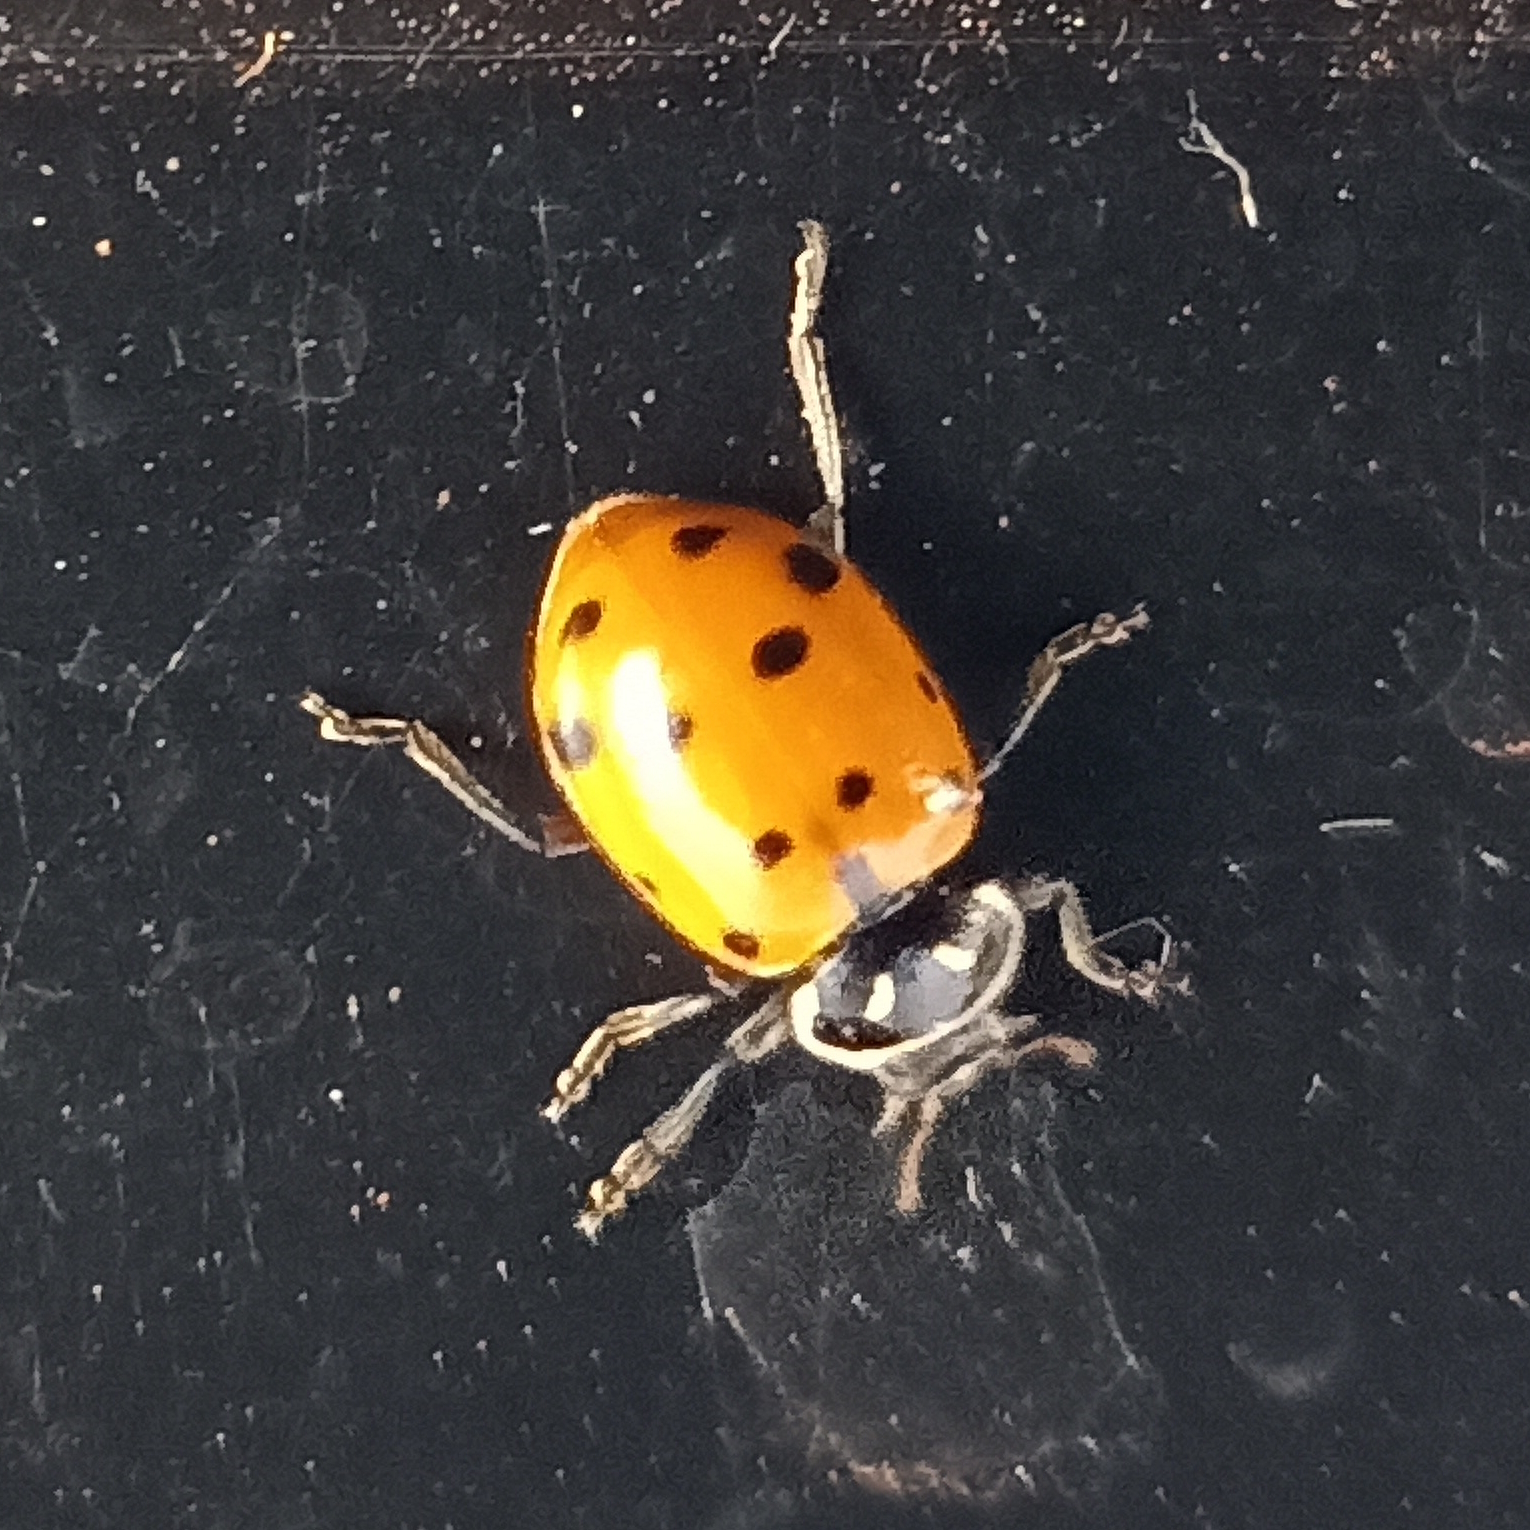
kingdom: Animalia
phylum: Arthropoda
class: Insecta
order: Coleoptera
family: Coccinellidae
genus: Hippodamia
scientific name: Hippodamia convergens
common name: Convergent lady beetle
